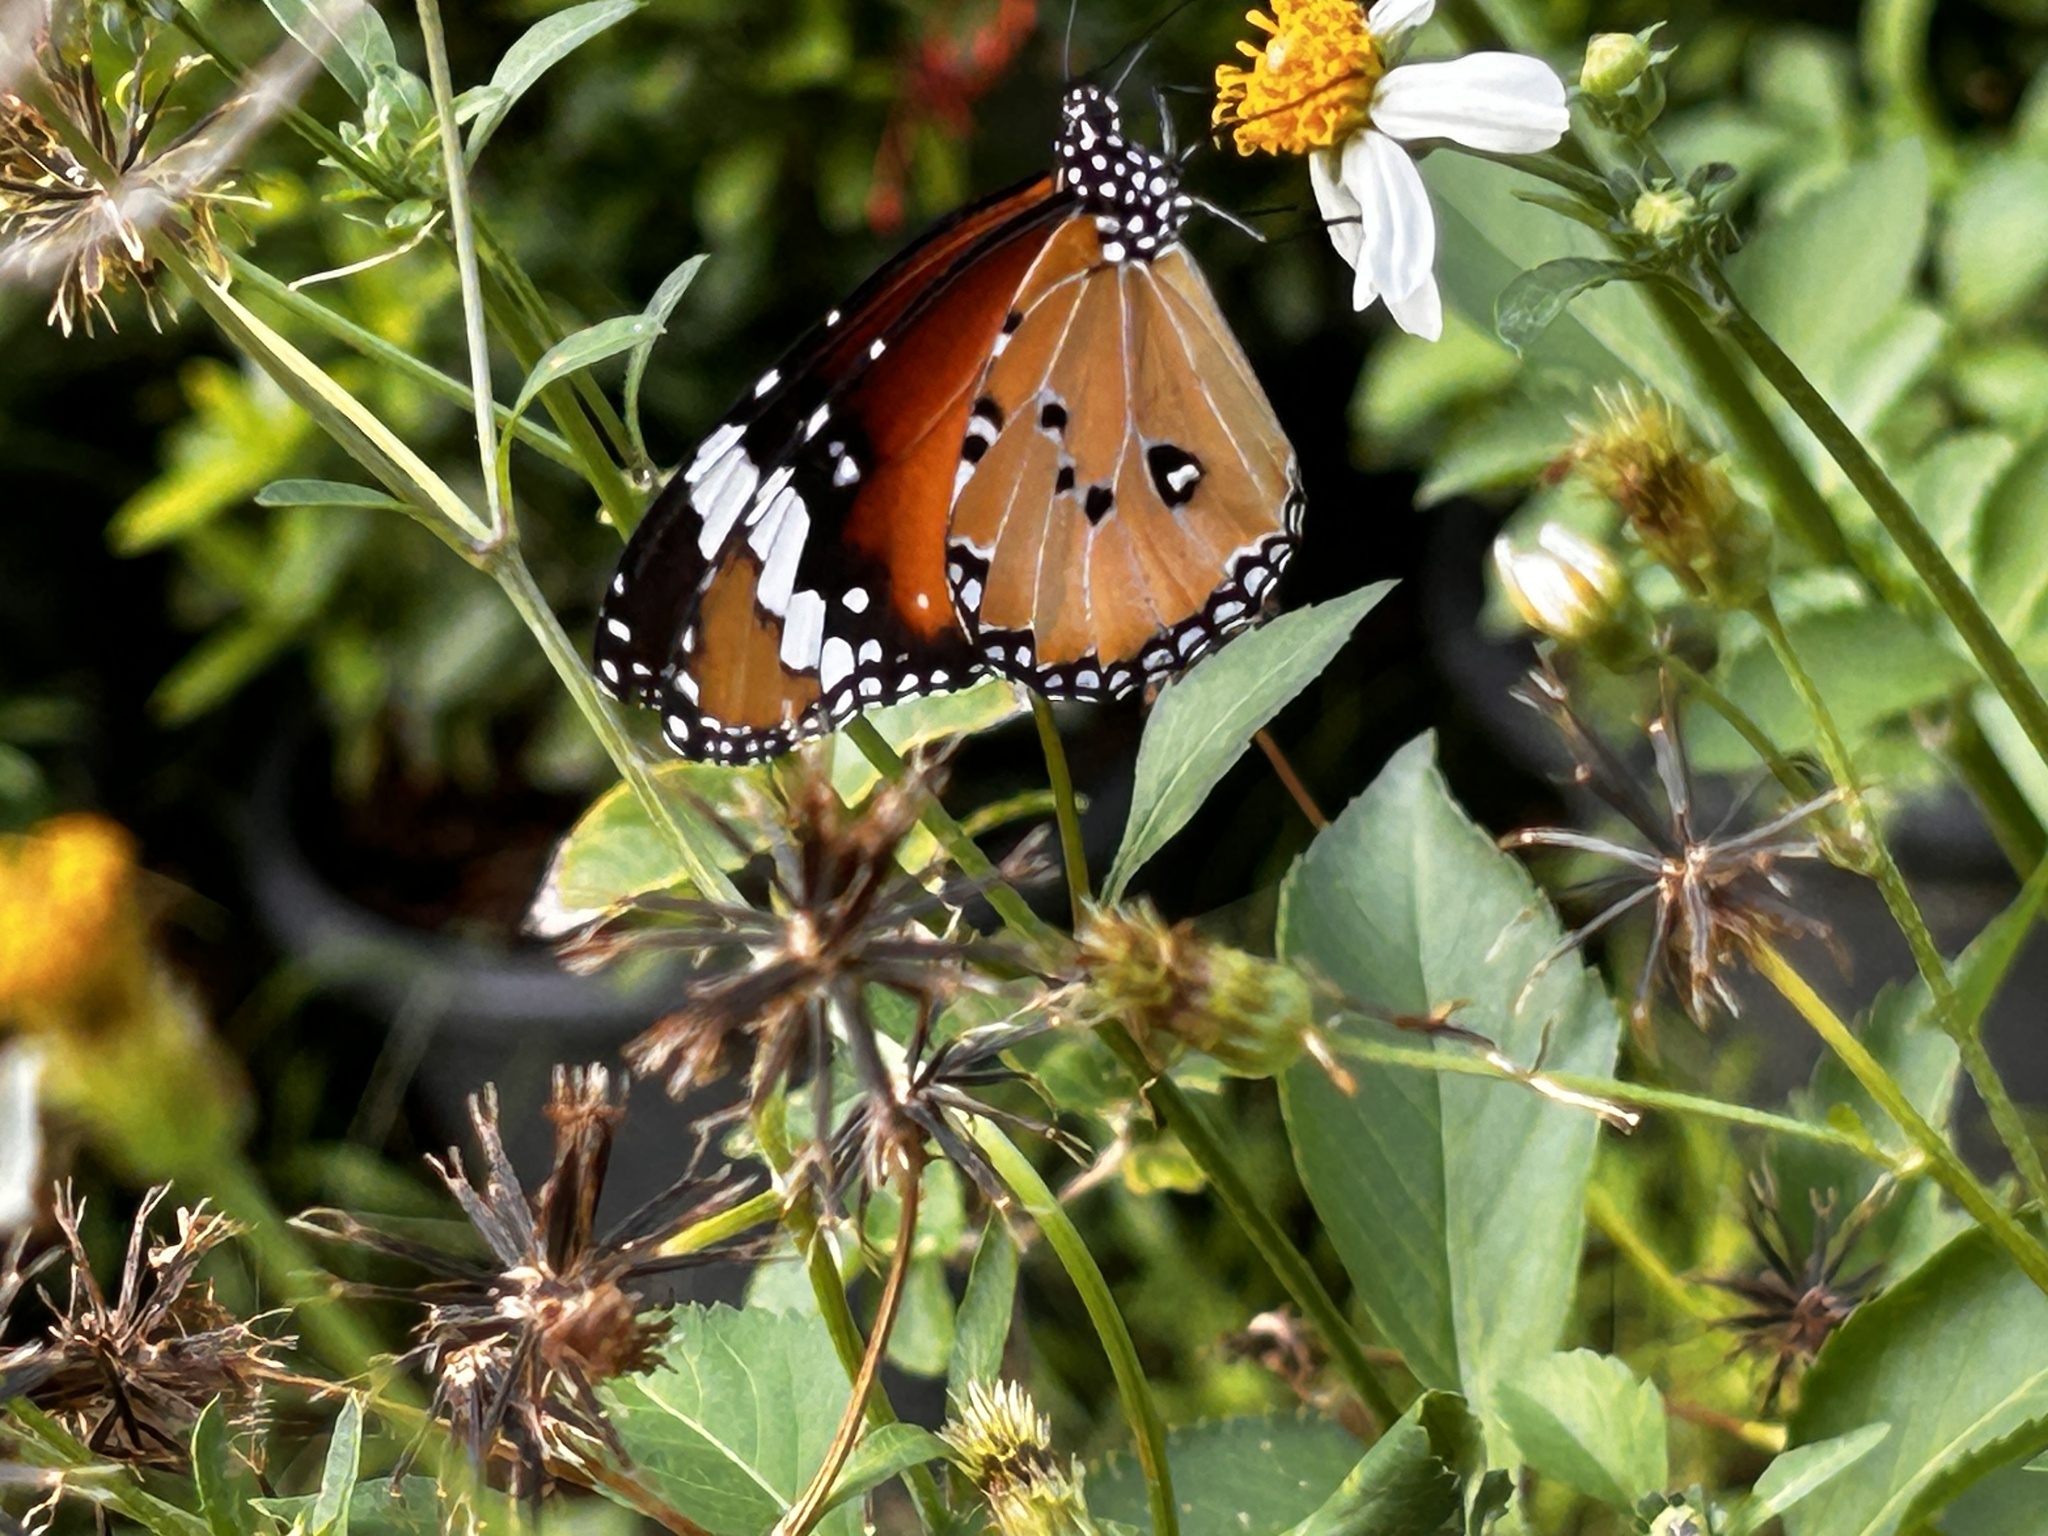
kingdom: Animalia
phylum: Arthropoda
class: Insecta
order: Lepidoptera
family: Nymphalidae
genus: Danaus
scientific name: Danaus chrysippus
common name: Plain tiger
